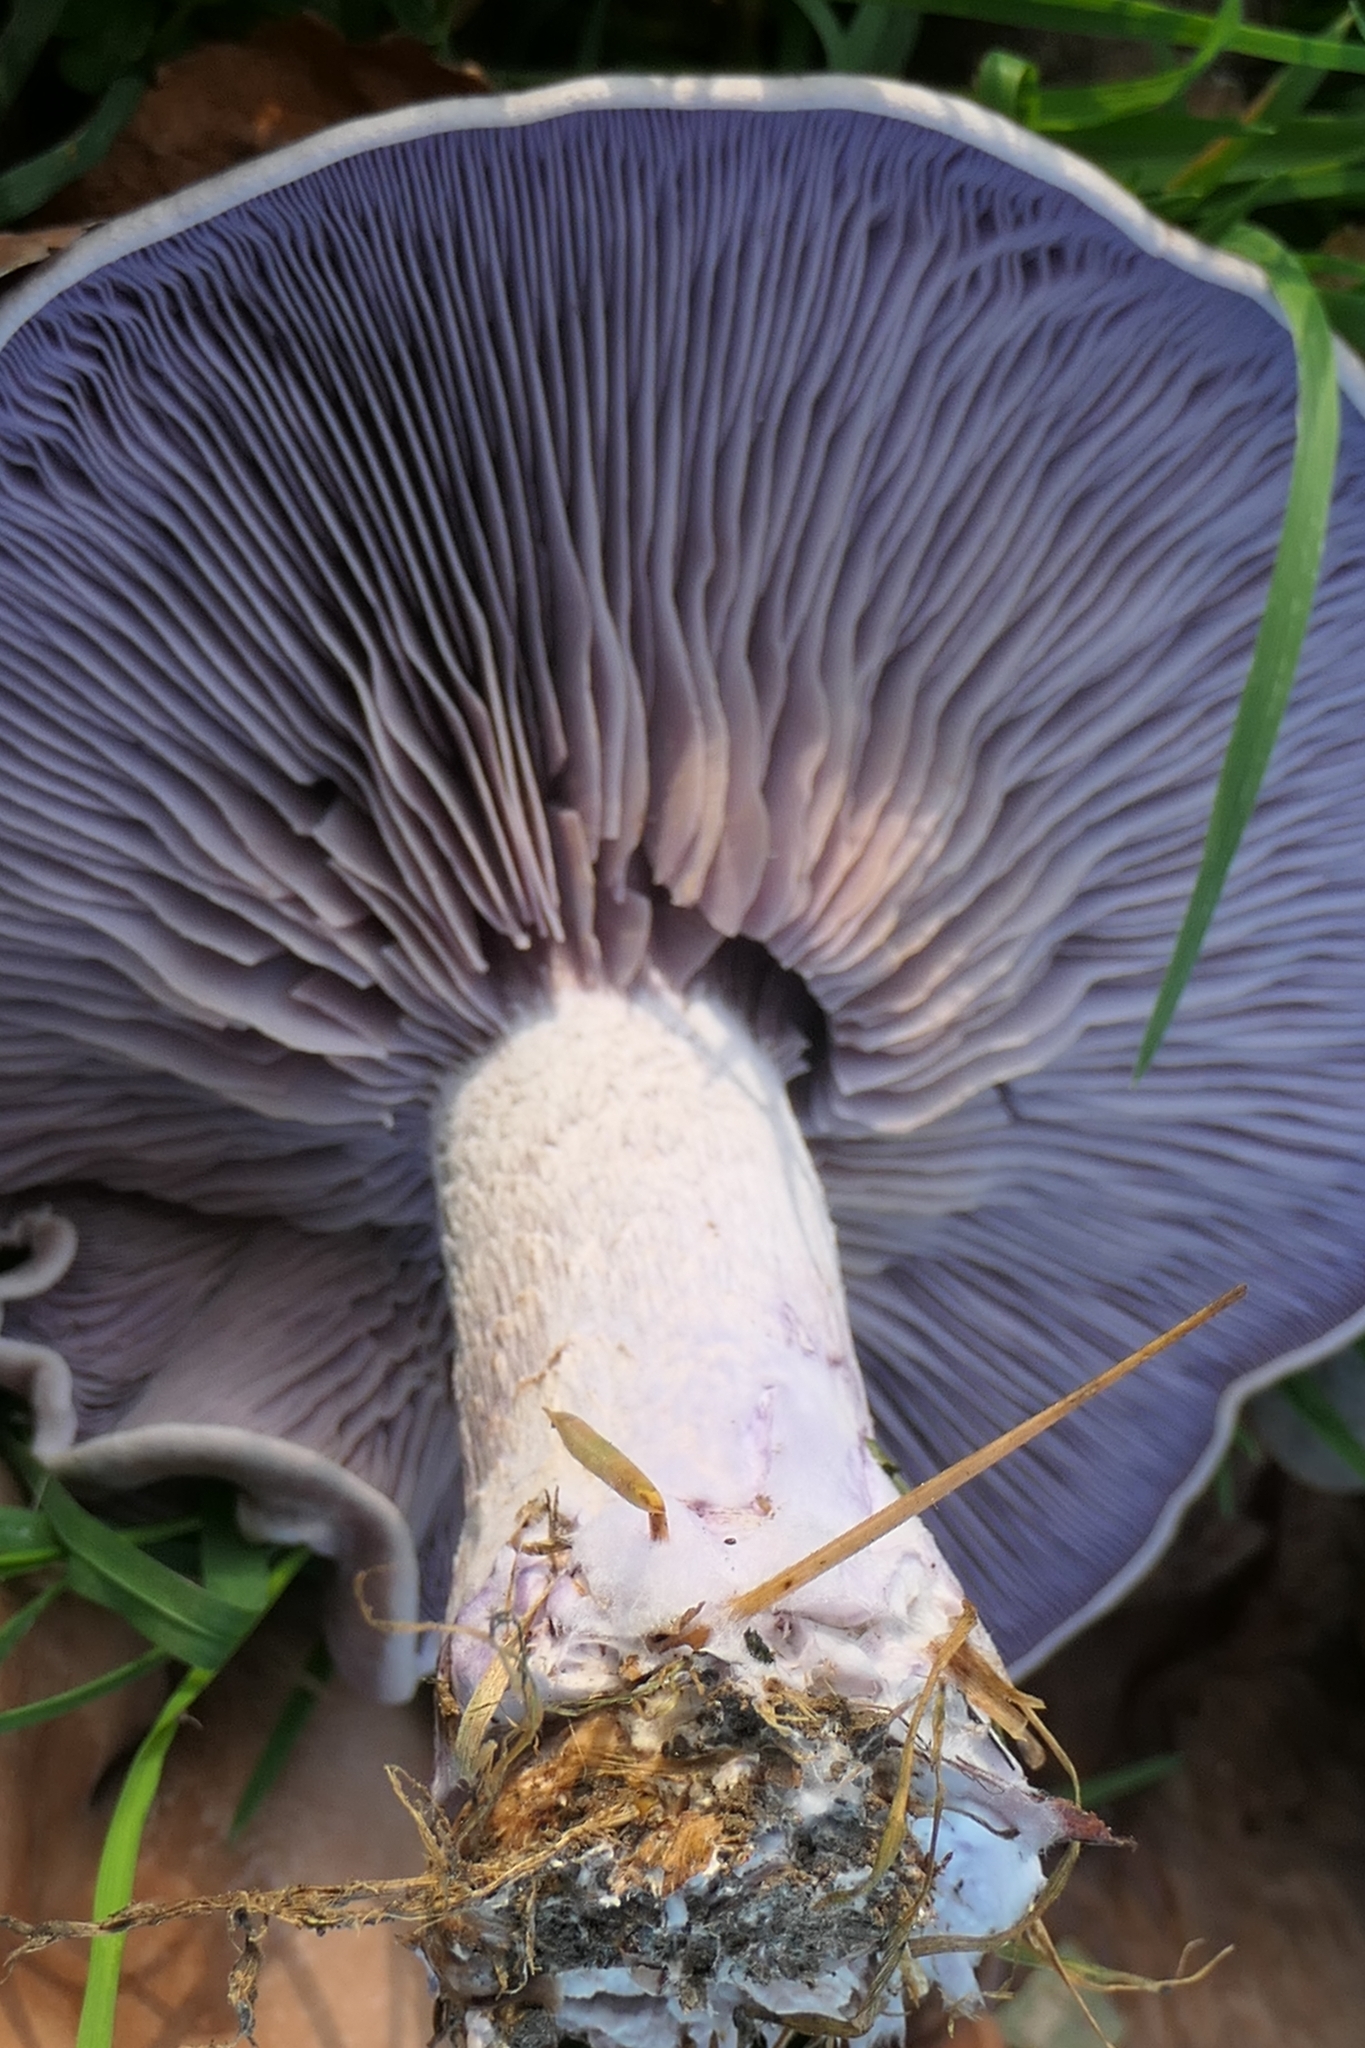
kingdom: Fungi
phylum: Basidiomycota
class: Agaricomycetes
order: Agaricales
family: Tricholomataceae
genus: Collybia
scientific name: Collybia
